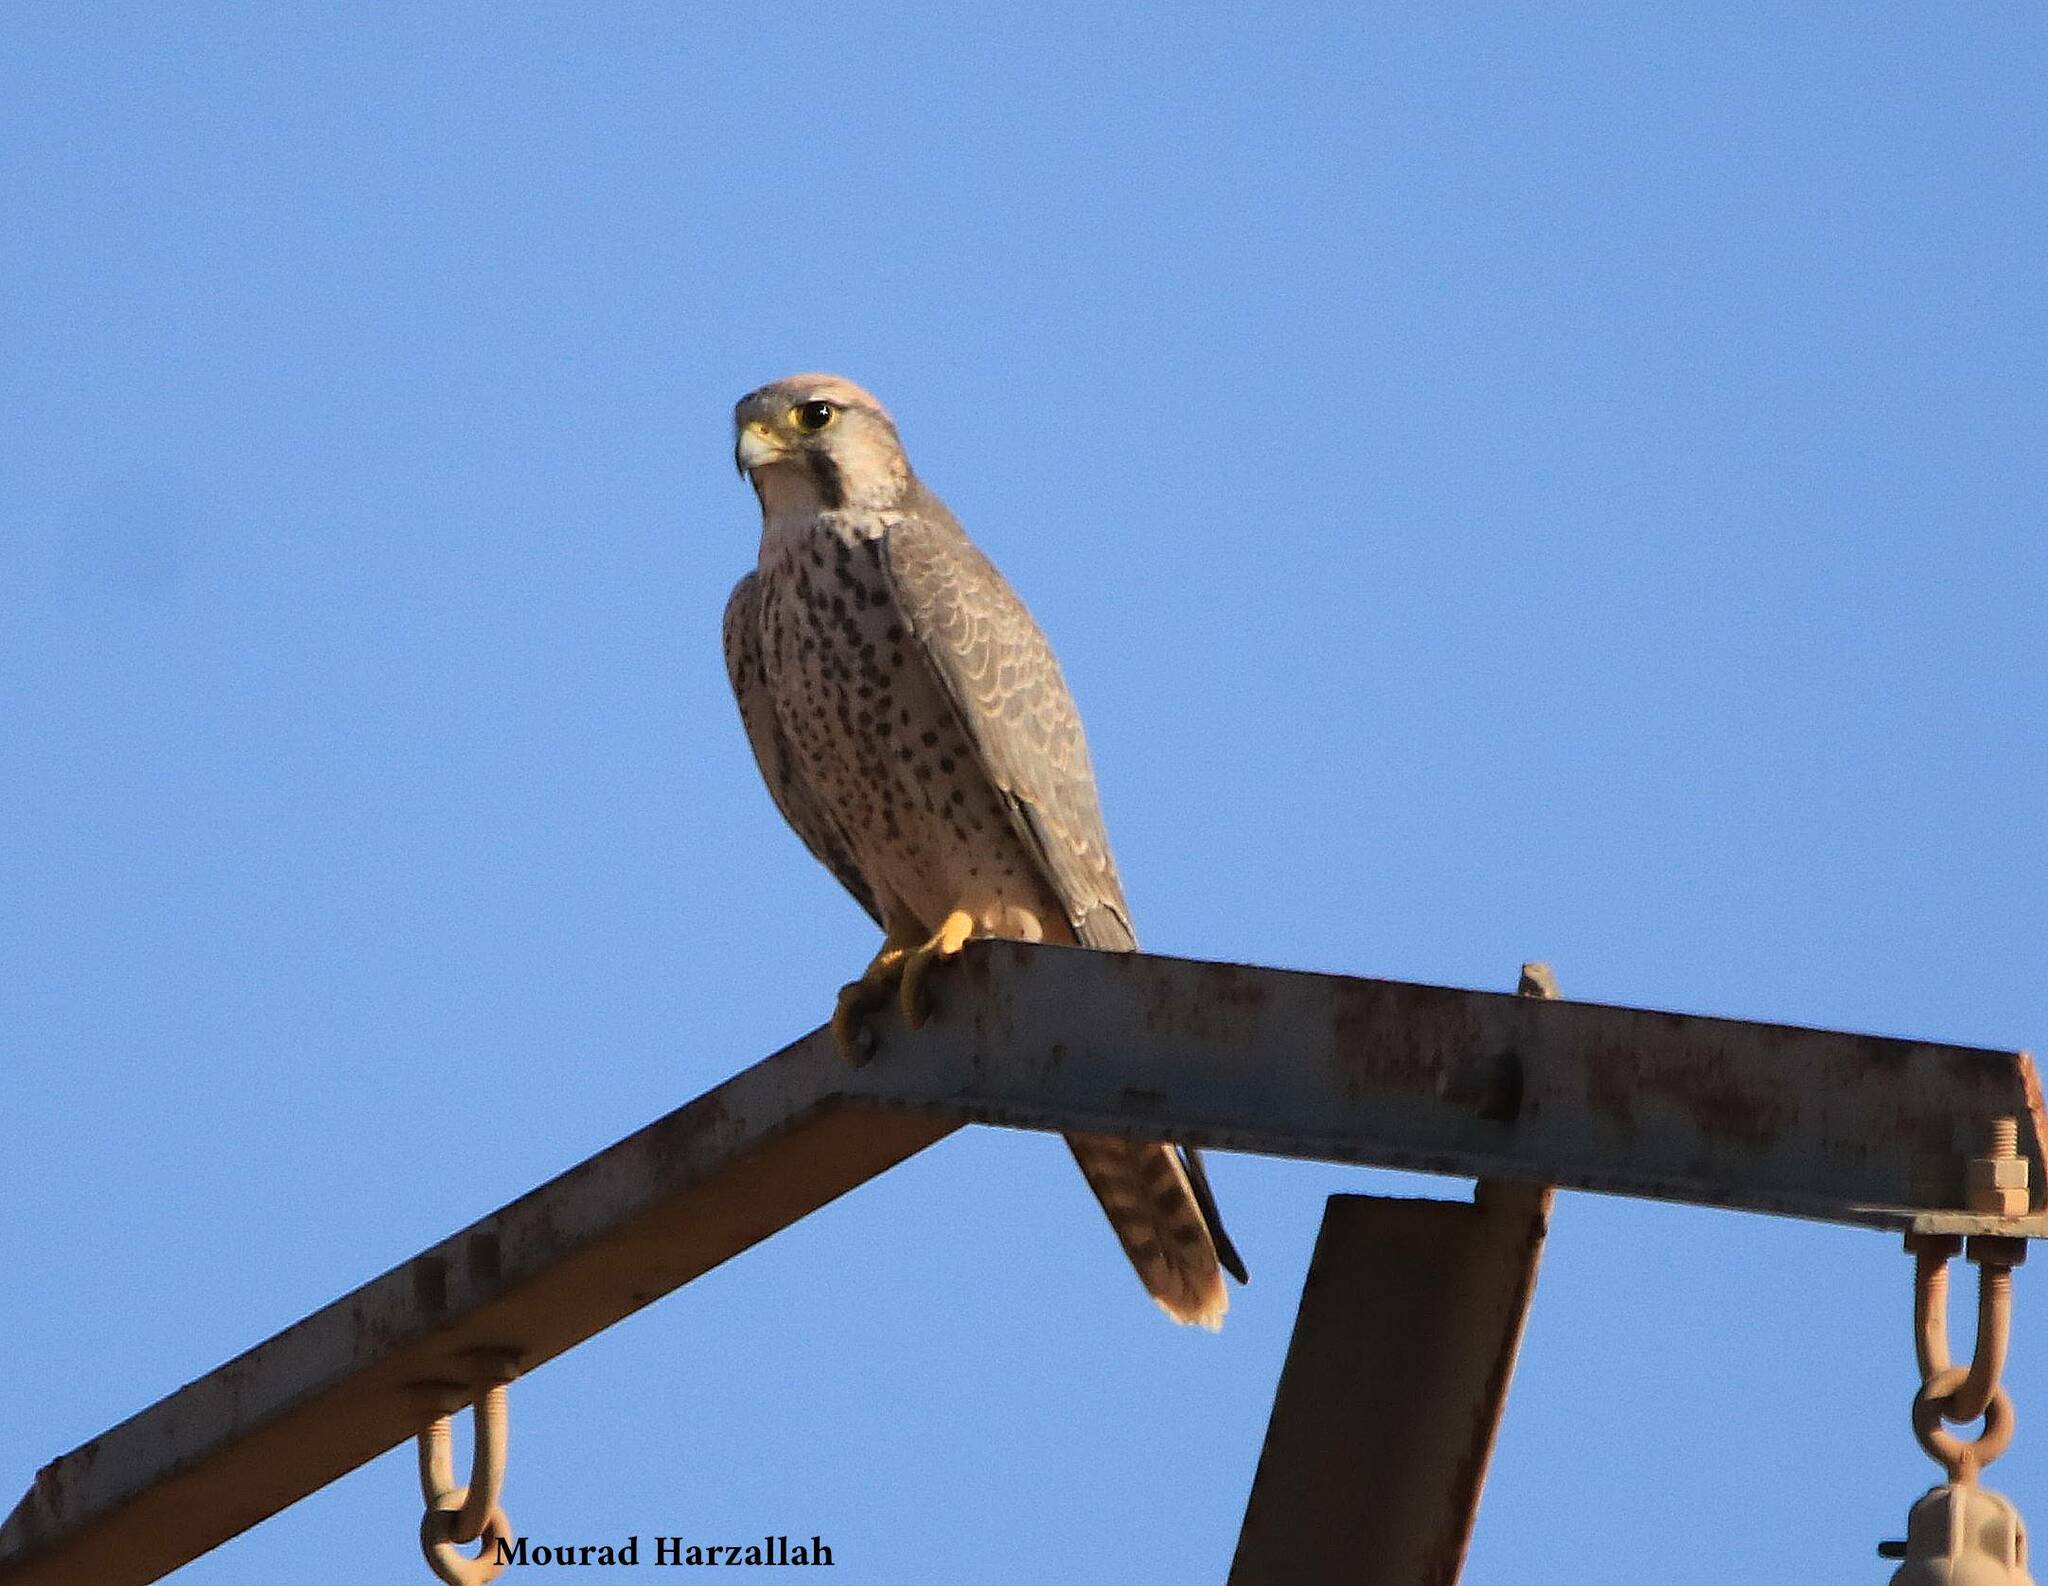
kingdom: Animalia
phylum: Chordata
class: Aves
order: Falconiformes
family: Falconidae
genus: Falco
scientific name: Falco biarmicus
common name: Lanner falcon
